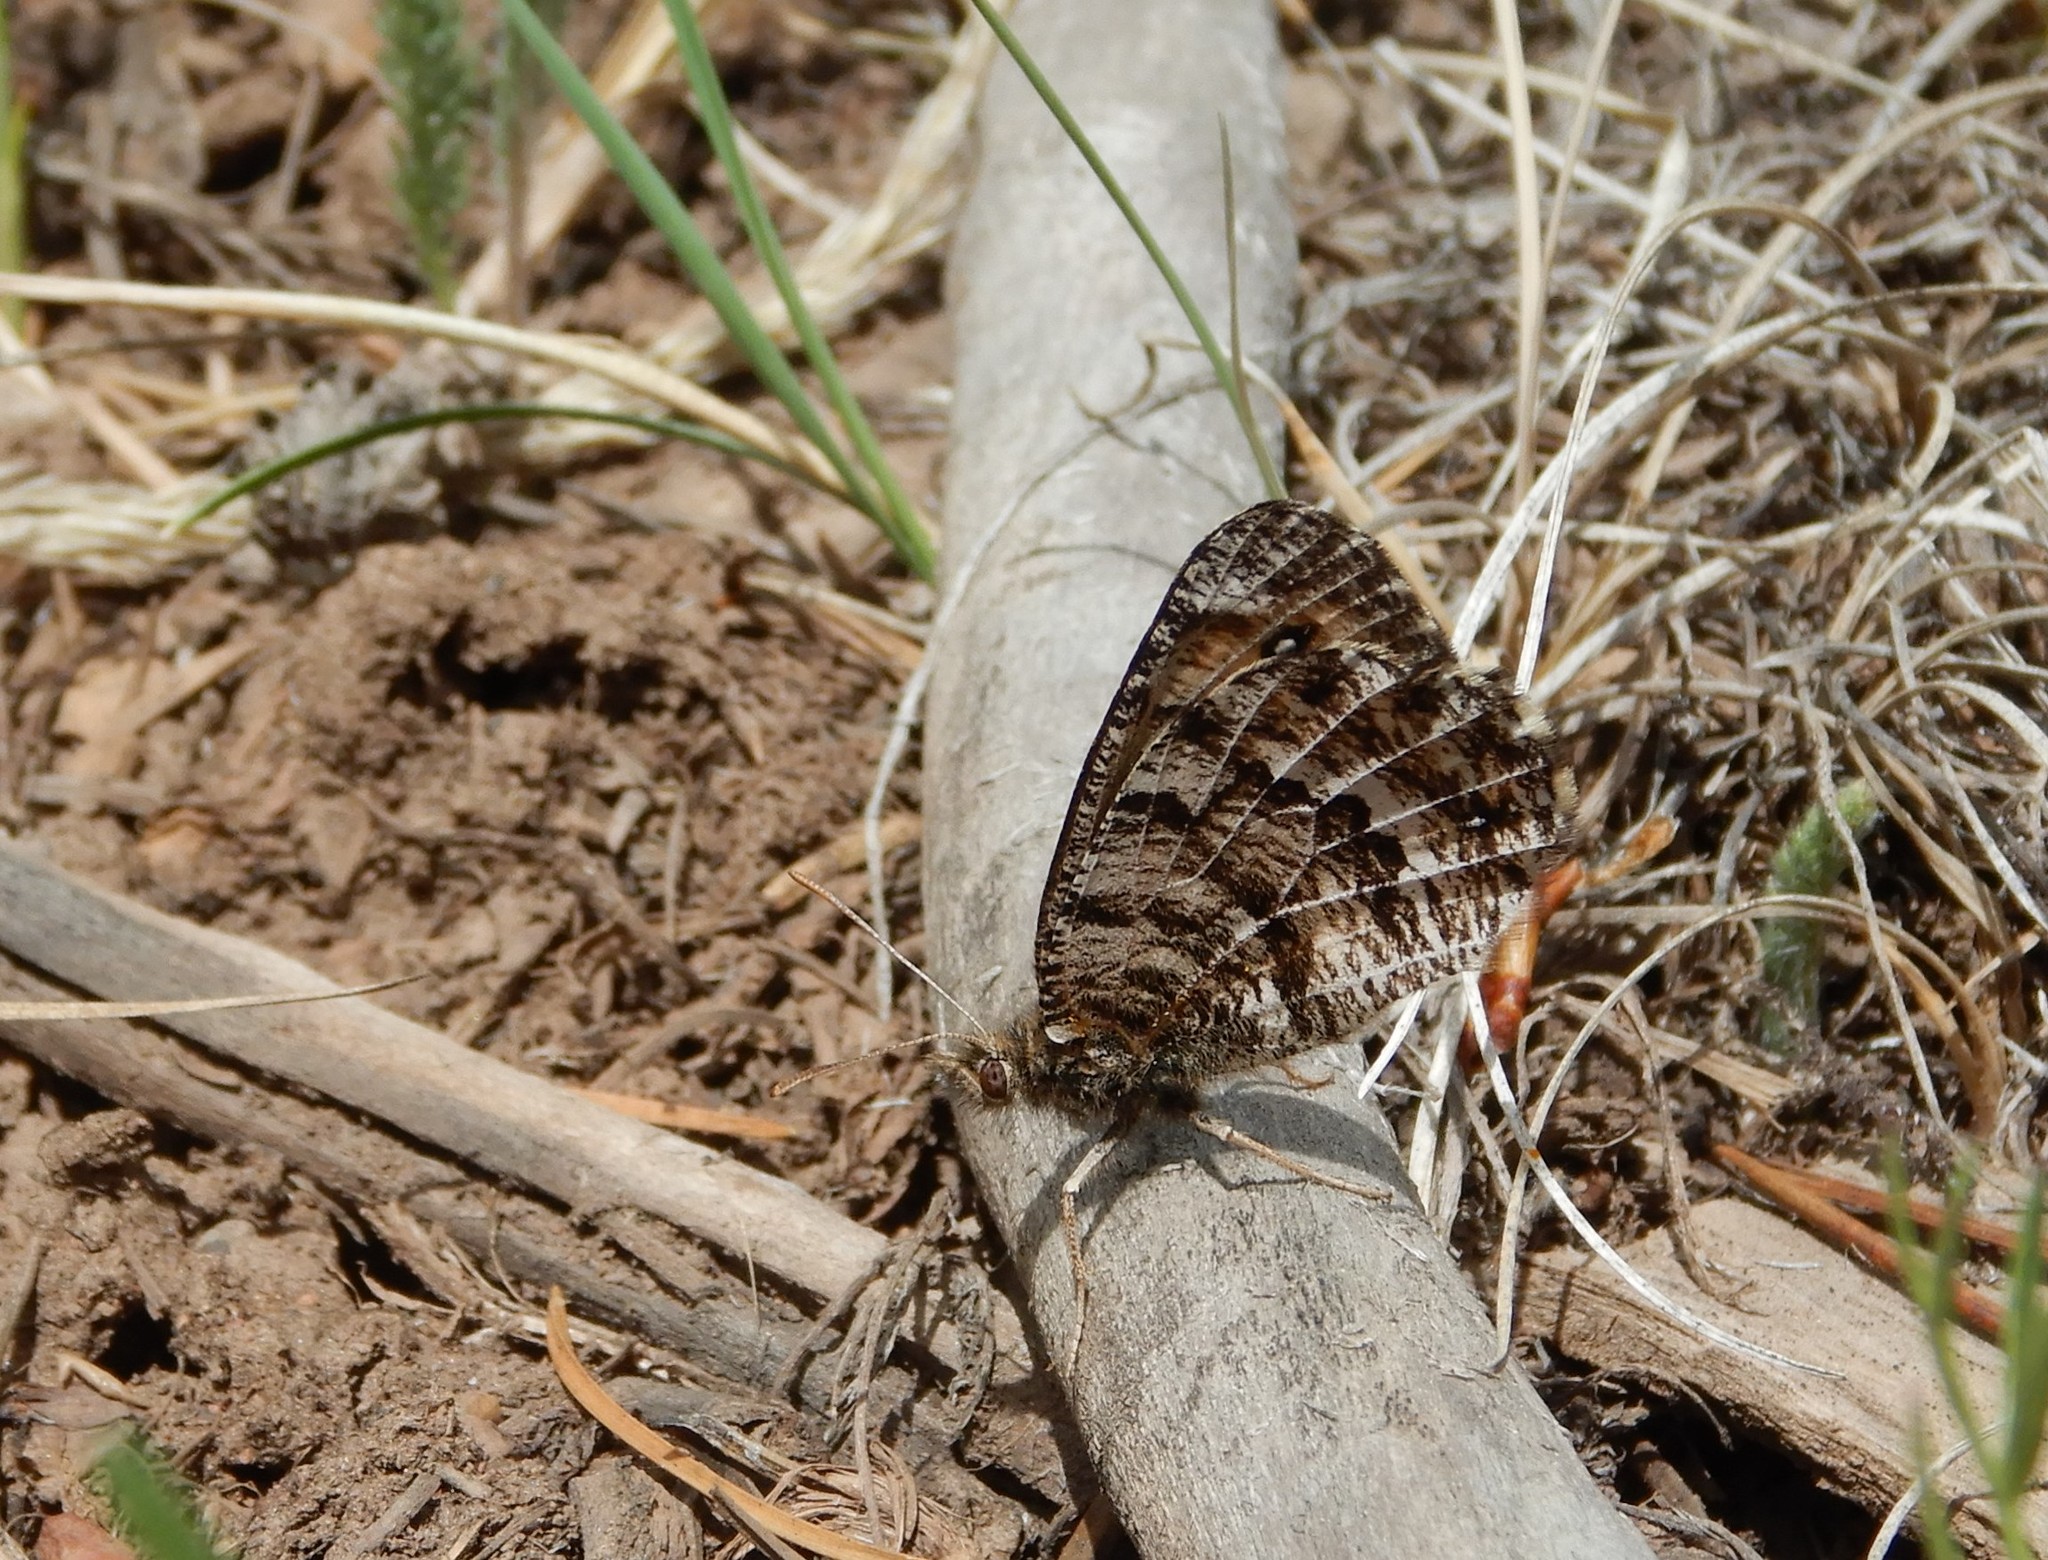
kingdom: Animalia
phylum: Arthropoda
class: Insecta
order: Lepidoptera
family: Nymphalidae
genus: Oeneis
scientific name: Oeneis chryxus
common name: Chryxus arctic
